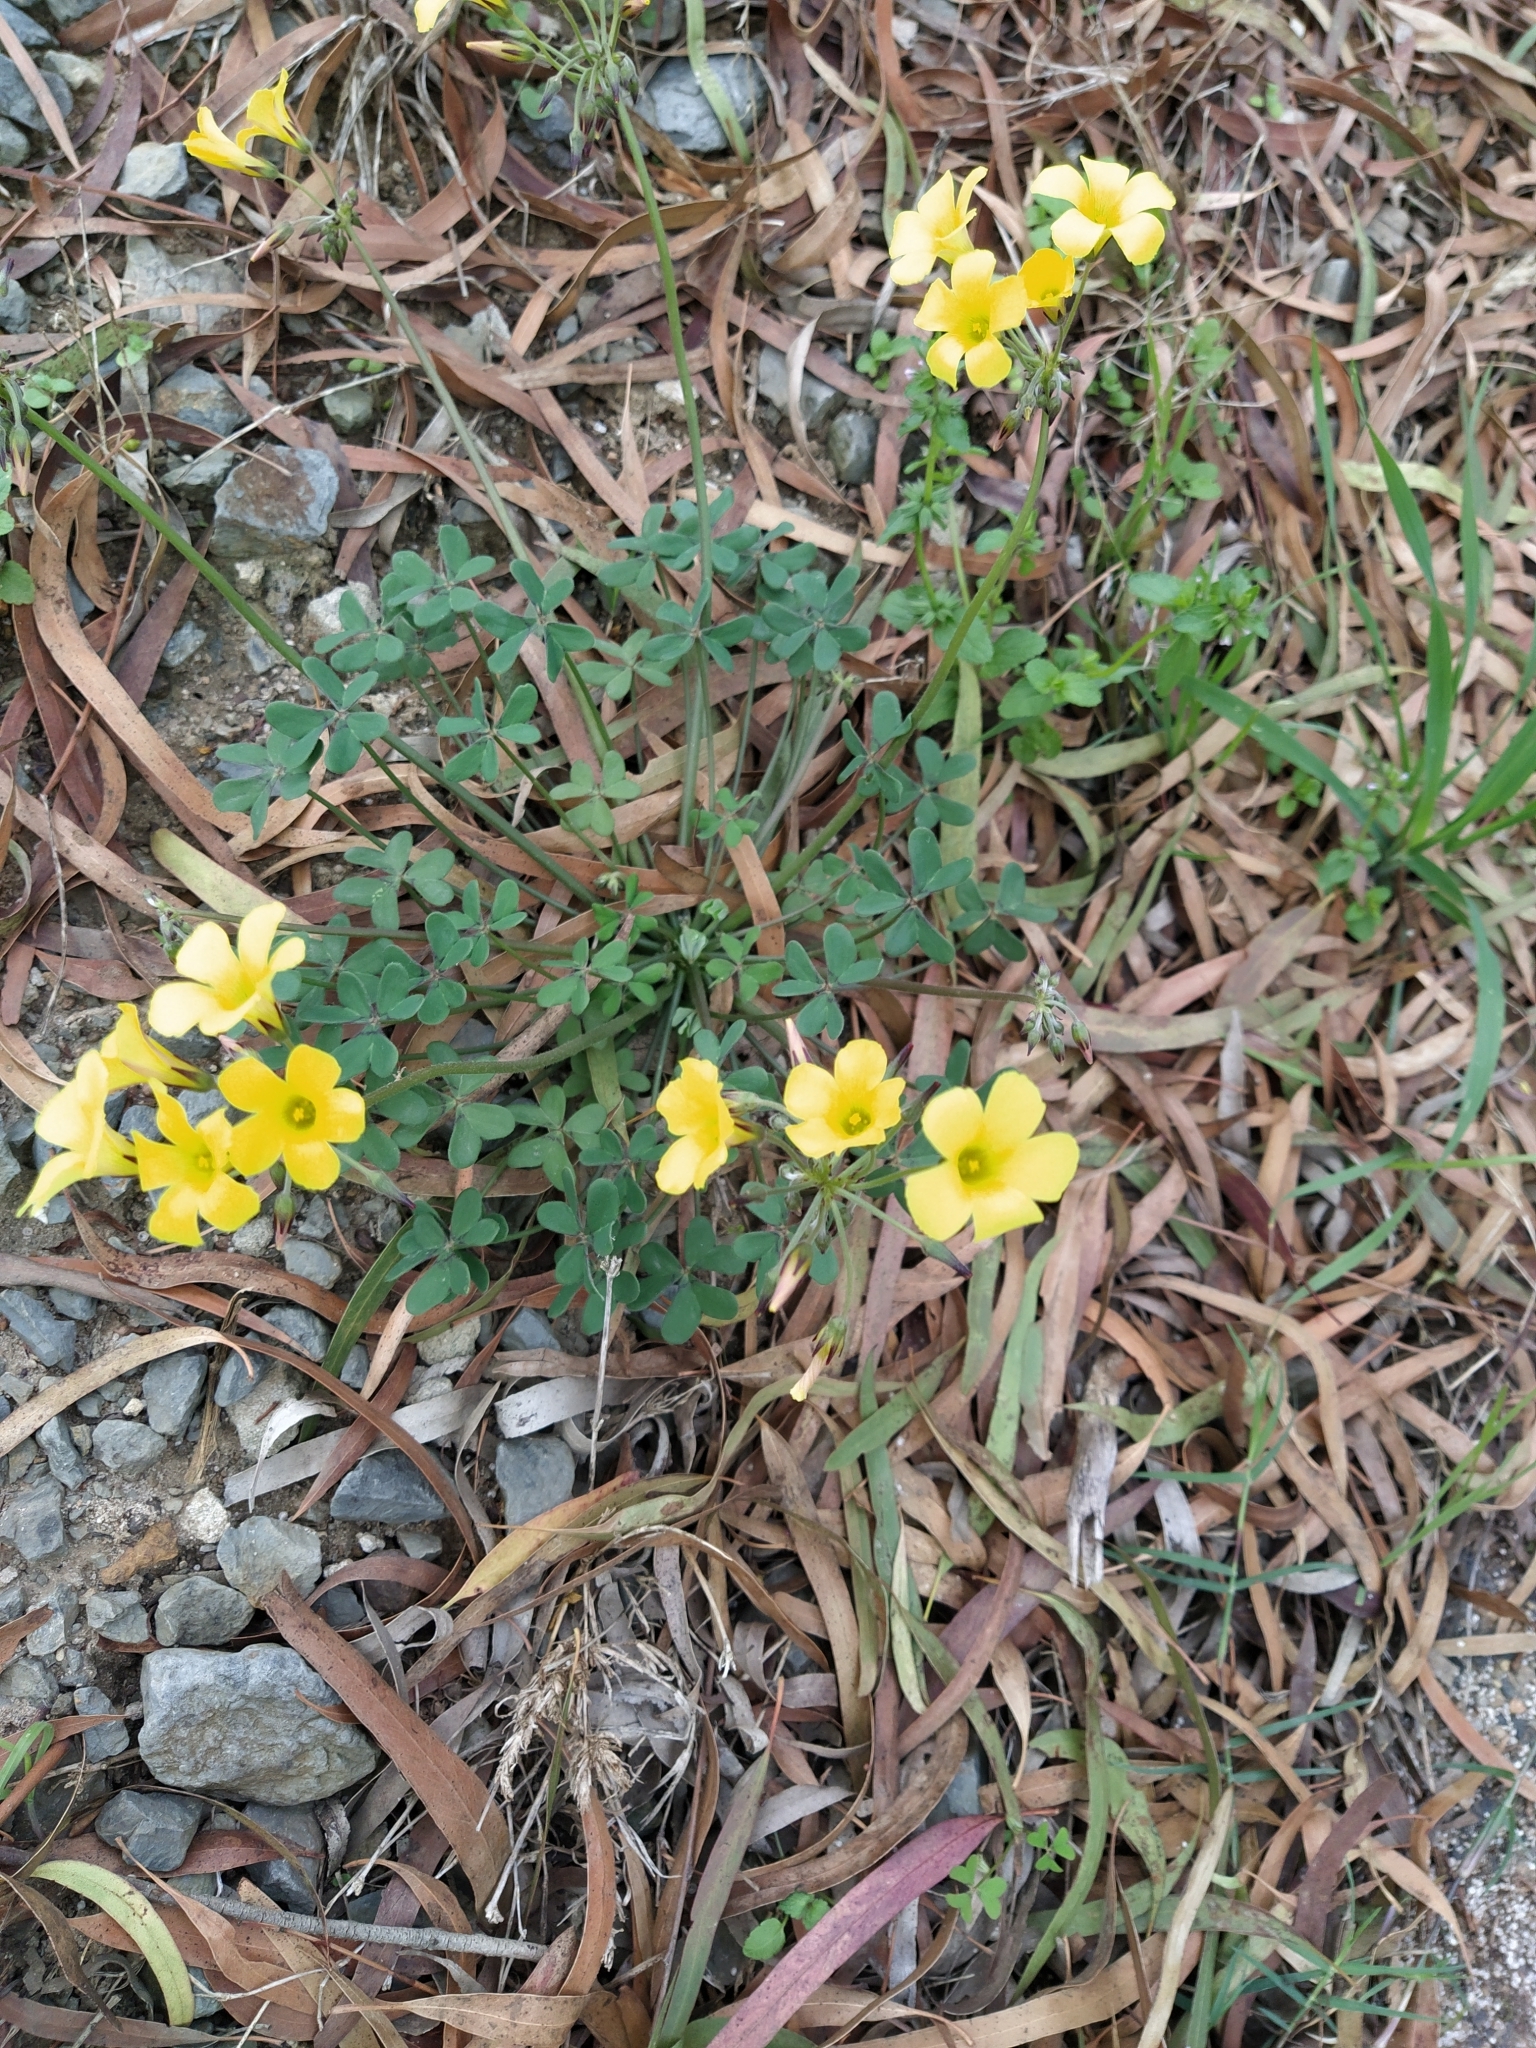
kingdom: Plantae
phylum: Tracheophyta
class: Magnoliopsida
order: Oxalidales
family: Oxalidaceae
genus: Oxalis
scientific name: Oxalis pes-caprae
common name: Bermuda-buttercup
